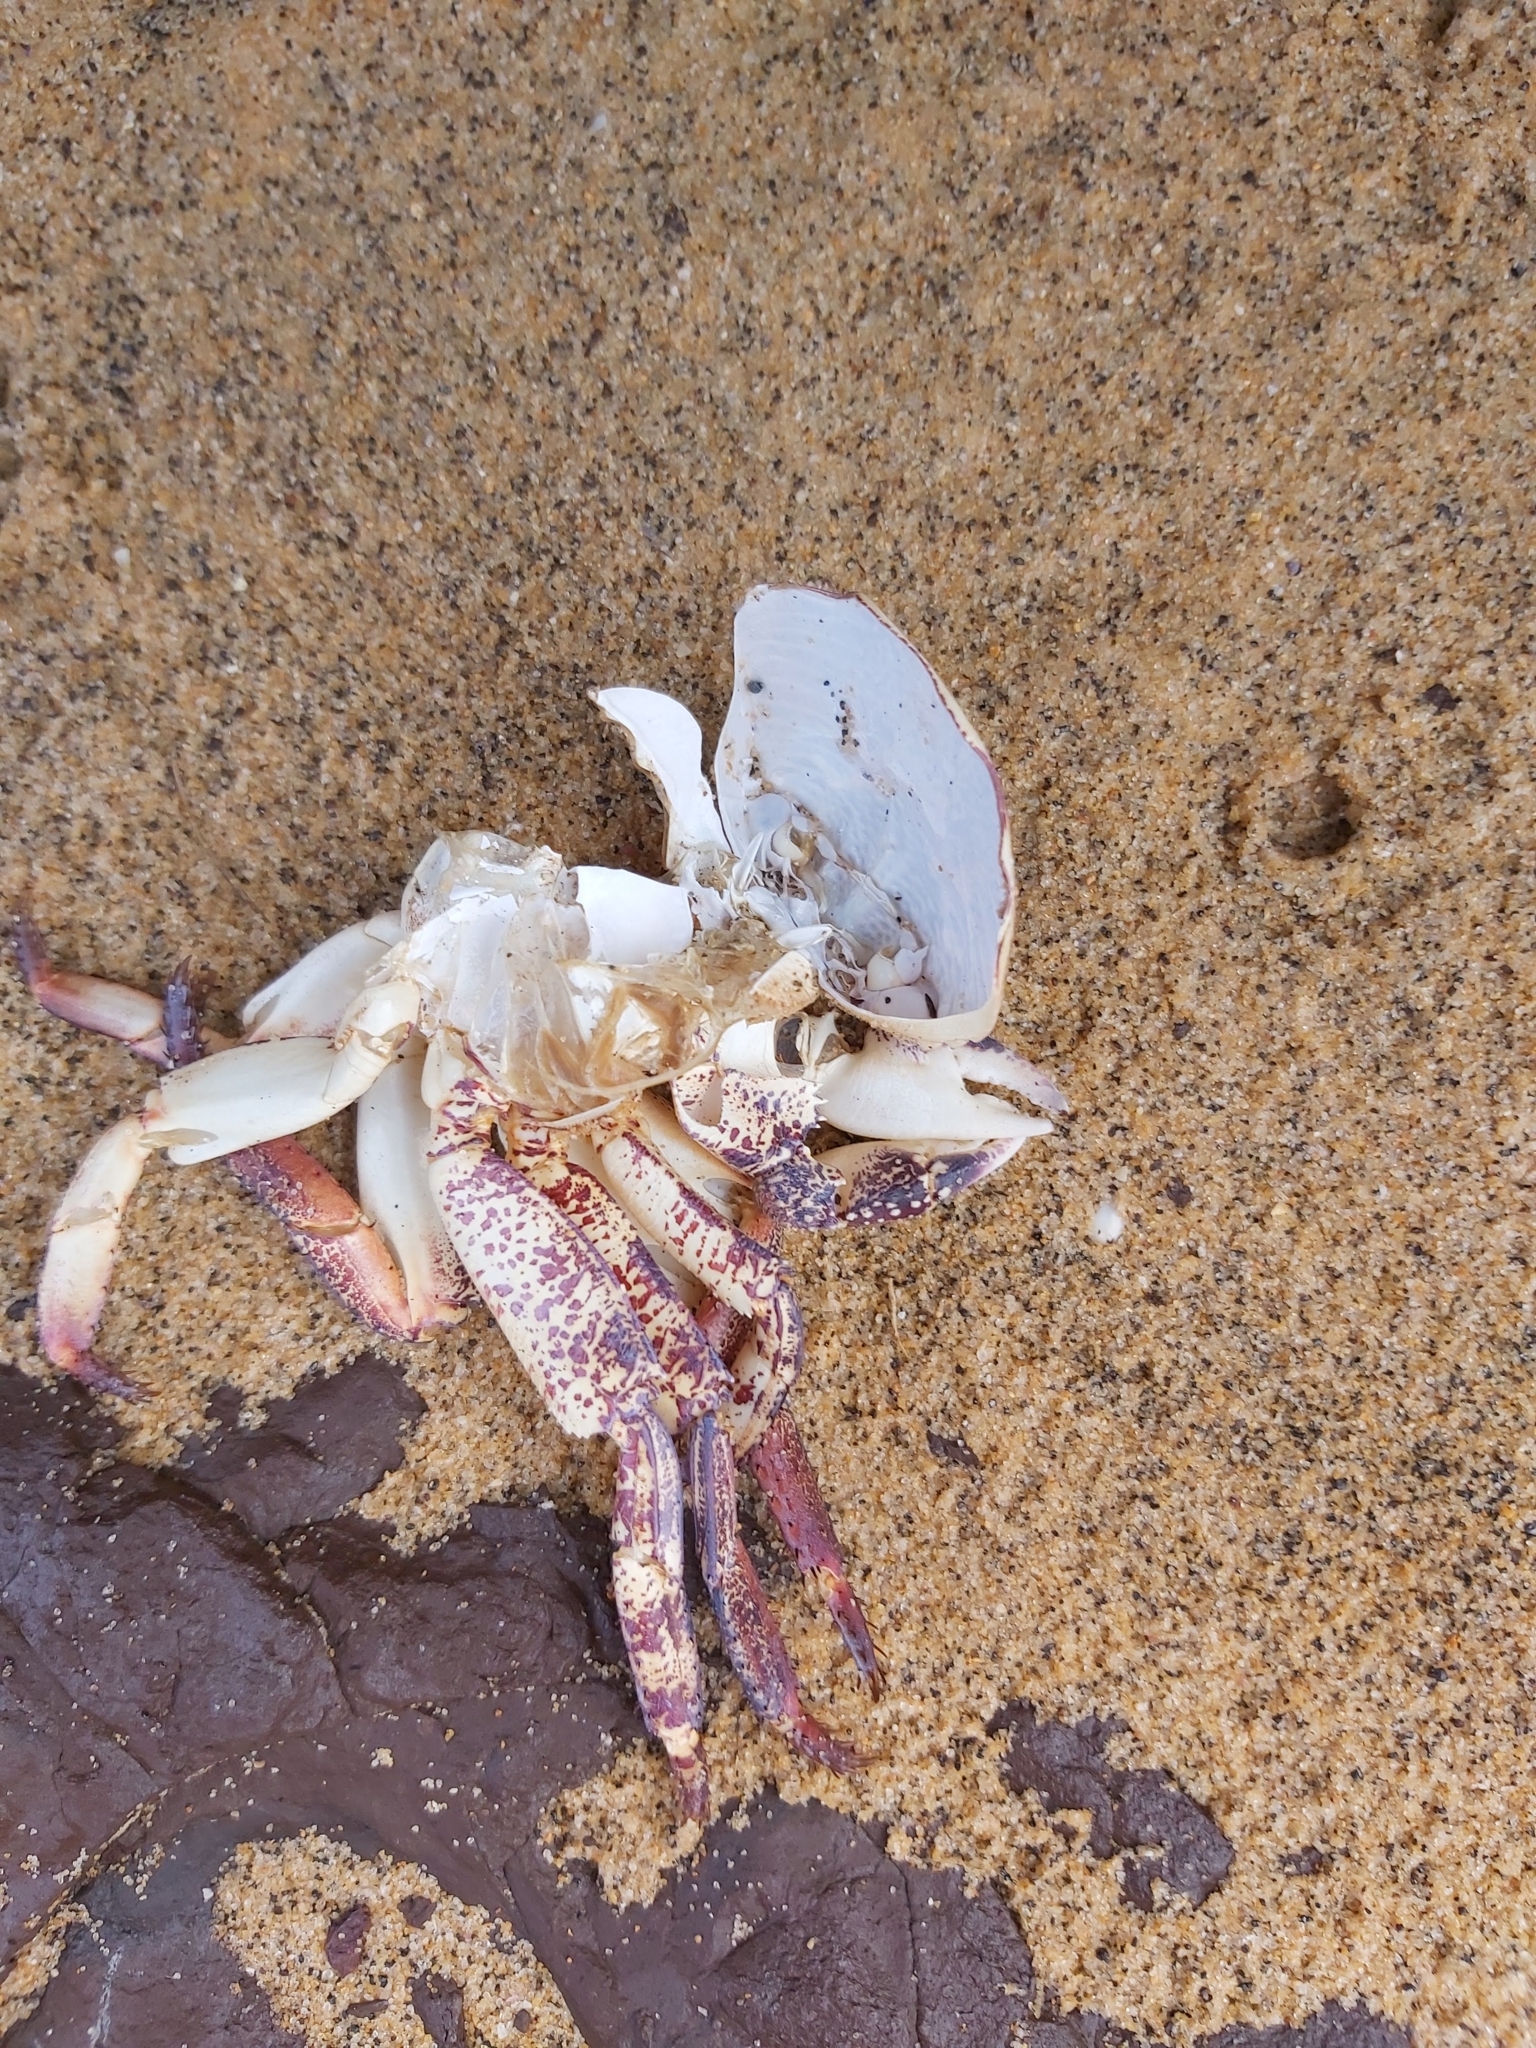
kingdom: Animalia
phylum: Arthropoda
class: Malacostraca
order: Decapoda
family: Grapsidae
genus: Leptograpsus
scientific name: Leptograpsus variegatus
